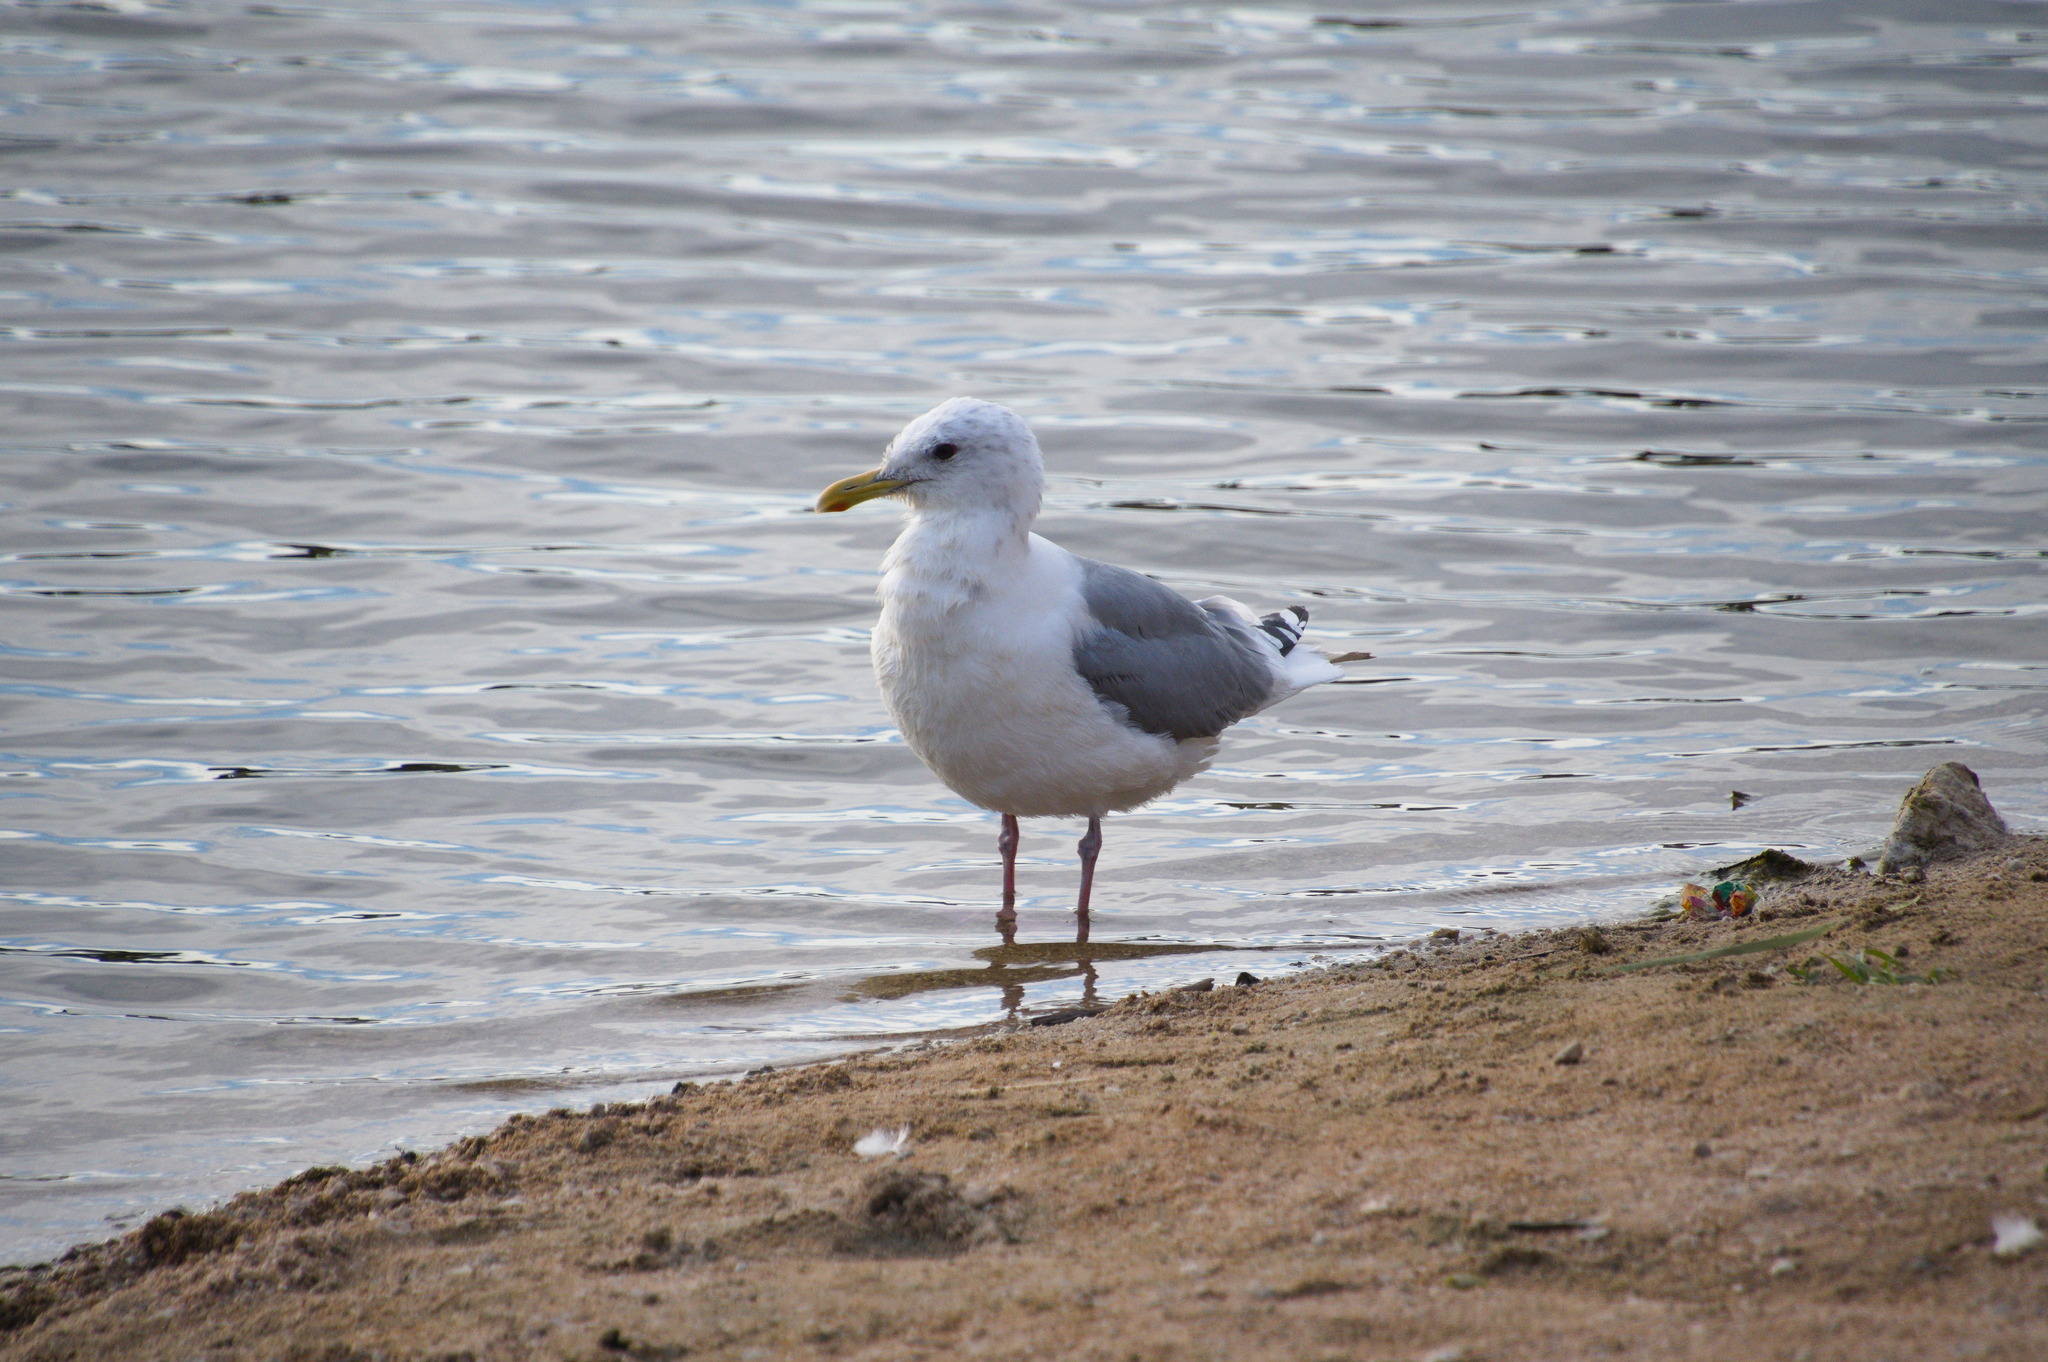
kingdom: Animalia
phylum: Chordata
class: Aves
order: Charadriiformes
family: Laridae
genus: Larus
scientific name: Larus glaucoides
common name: Iceland gull
